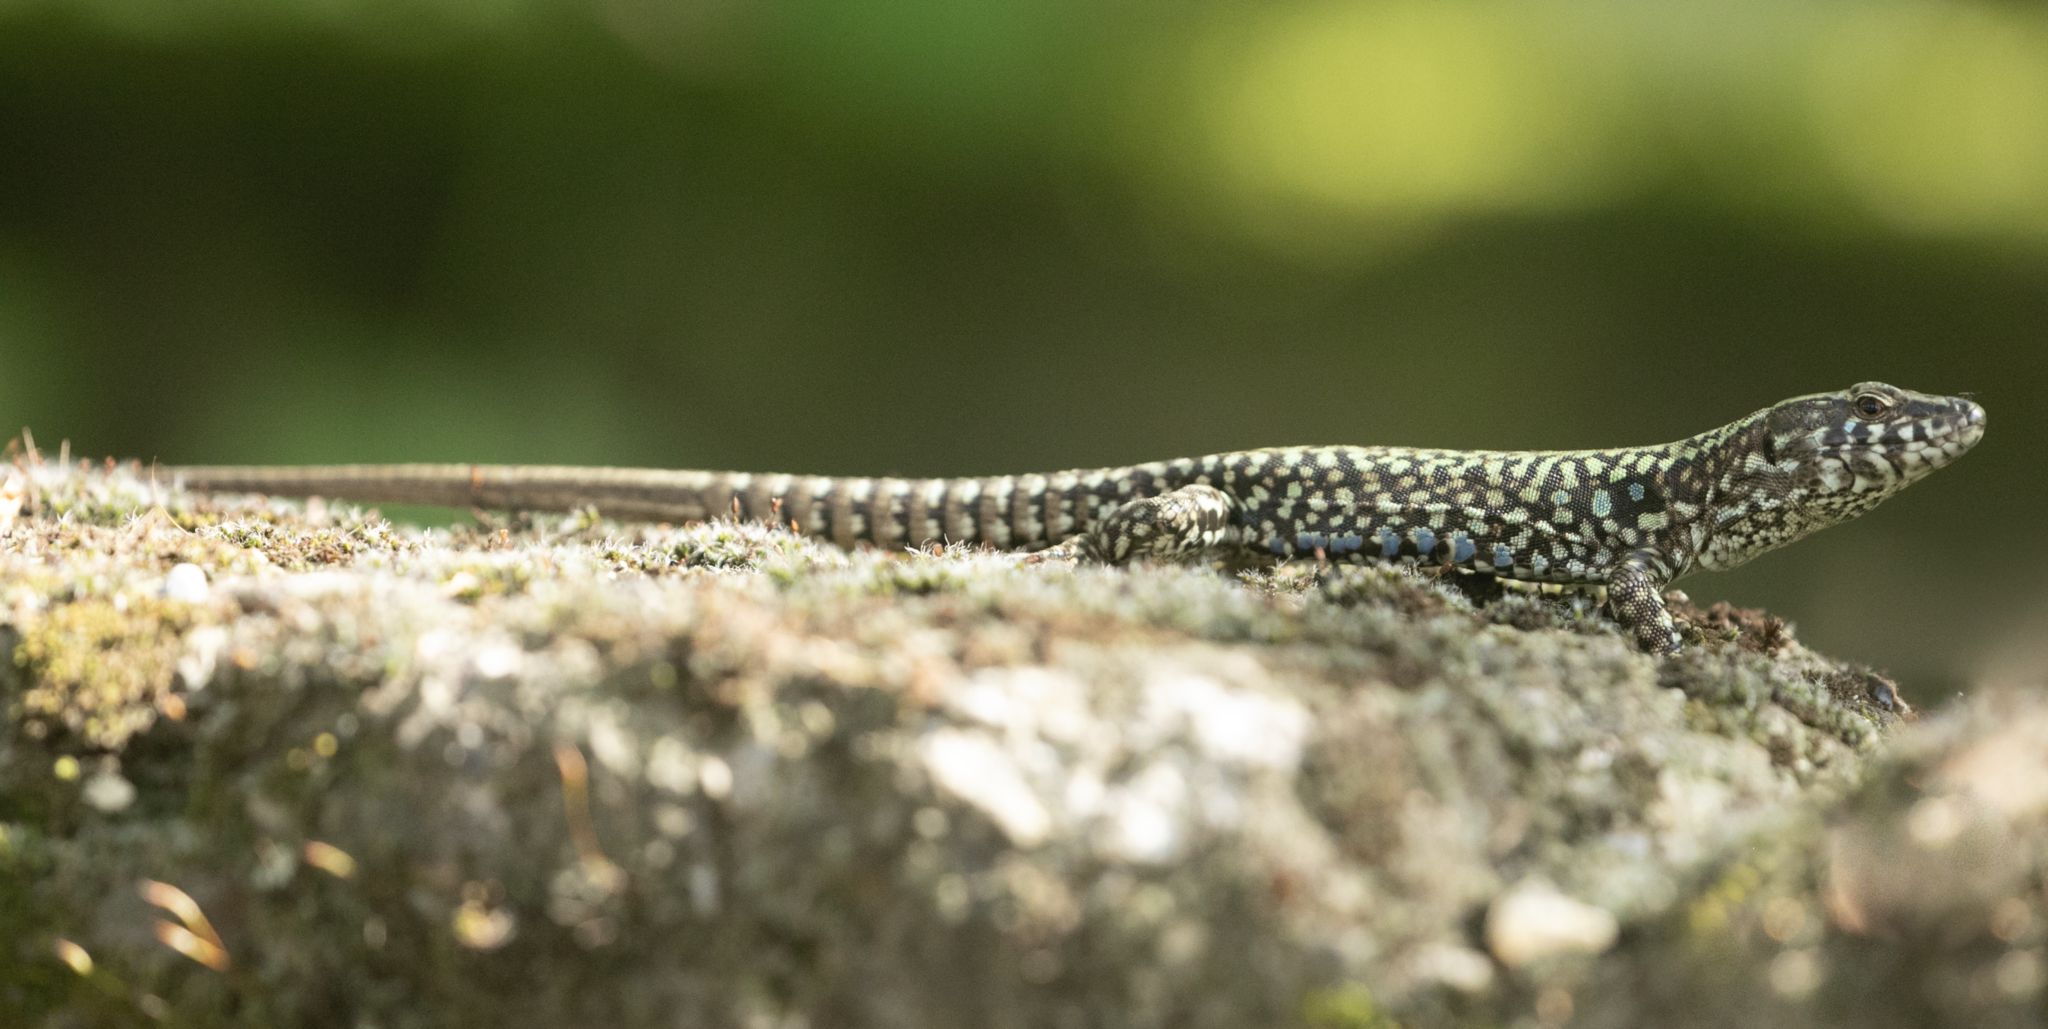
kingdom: Animalia
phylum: Chordata
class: Squamata
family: Lacertidae
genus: Podarcis
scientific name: Podarcis muralis
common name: Common wall lizard
